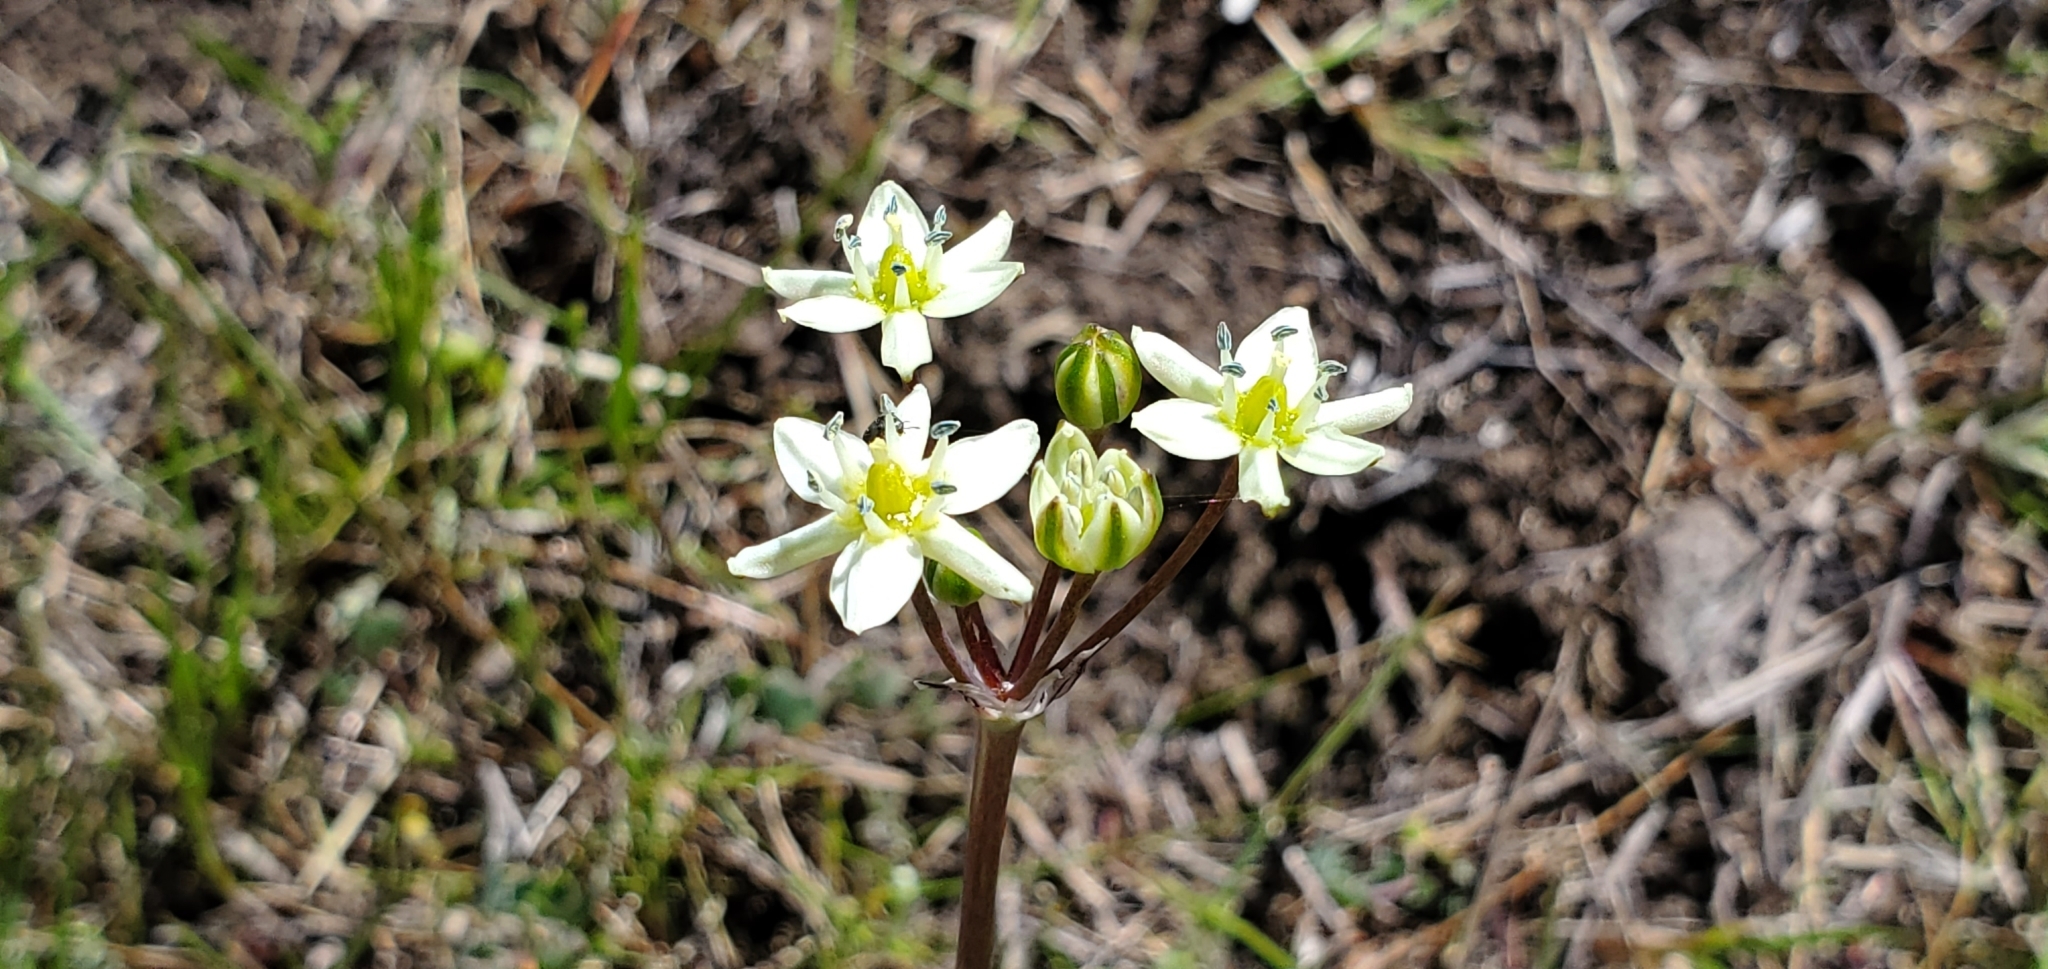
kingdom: Plantae
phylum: Tracheophyta
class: Liliopsida
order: Asparagales
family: Asparagaceae
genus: Muilla
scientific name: Muilla maritima
